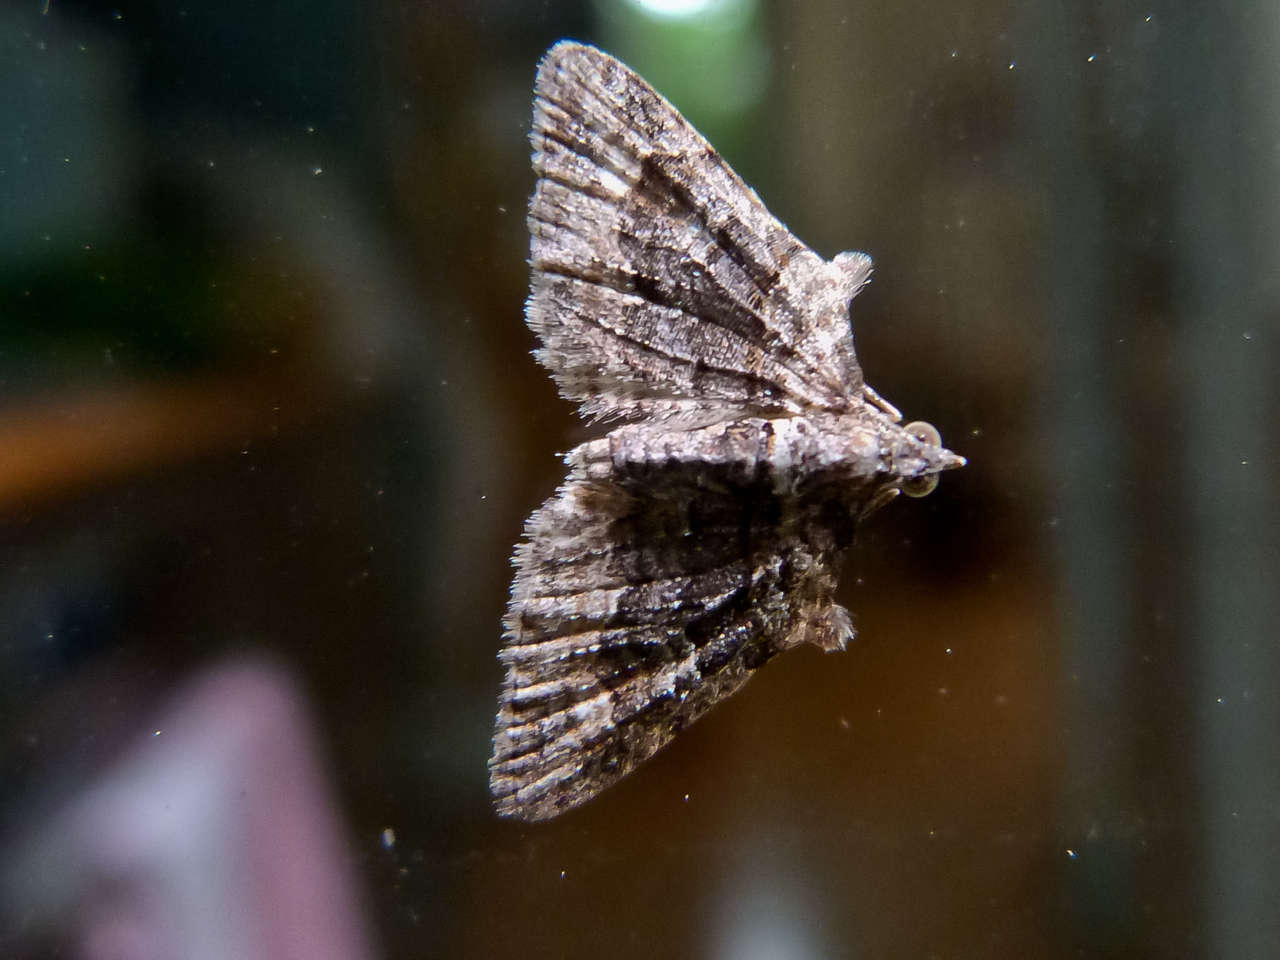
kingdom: Animalia
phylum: Arthropoda
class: Insecta
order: Lepidoptera
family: Geometridae
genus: Phrissogonus
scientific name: Phrissogonus laticostata
